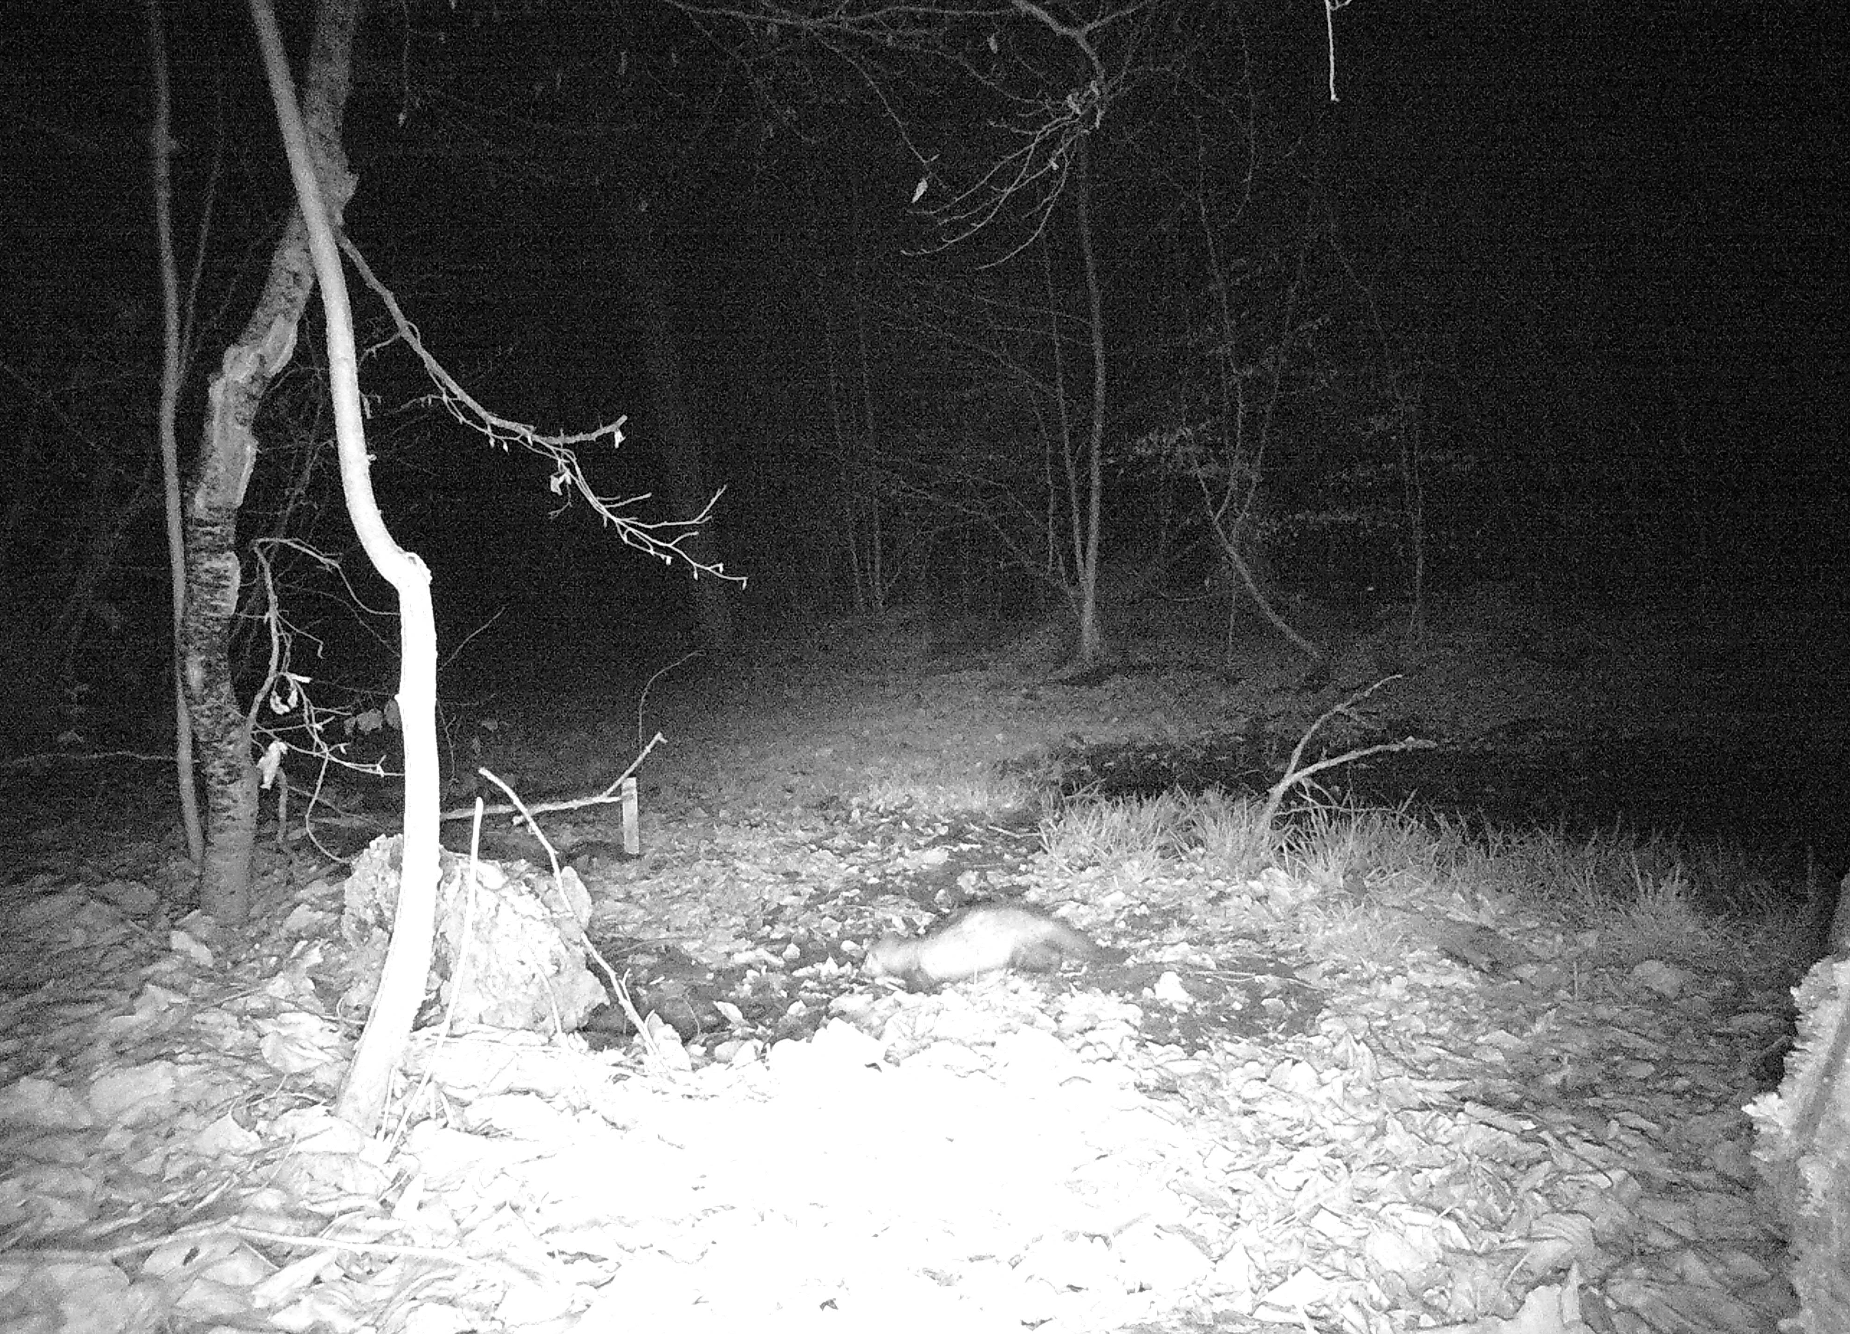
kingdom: Animalia
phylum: Chordata
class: Mammalia
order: Carnivora
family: Mustelidae
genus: Martes
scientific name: Martes foina
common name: Beech marten
